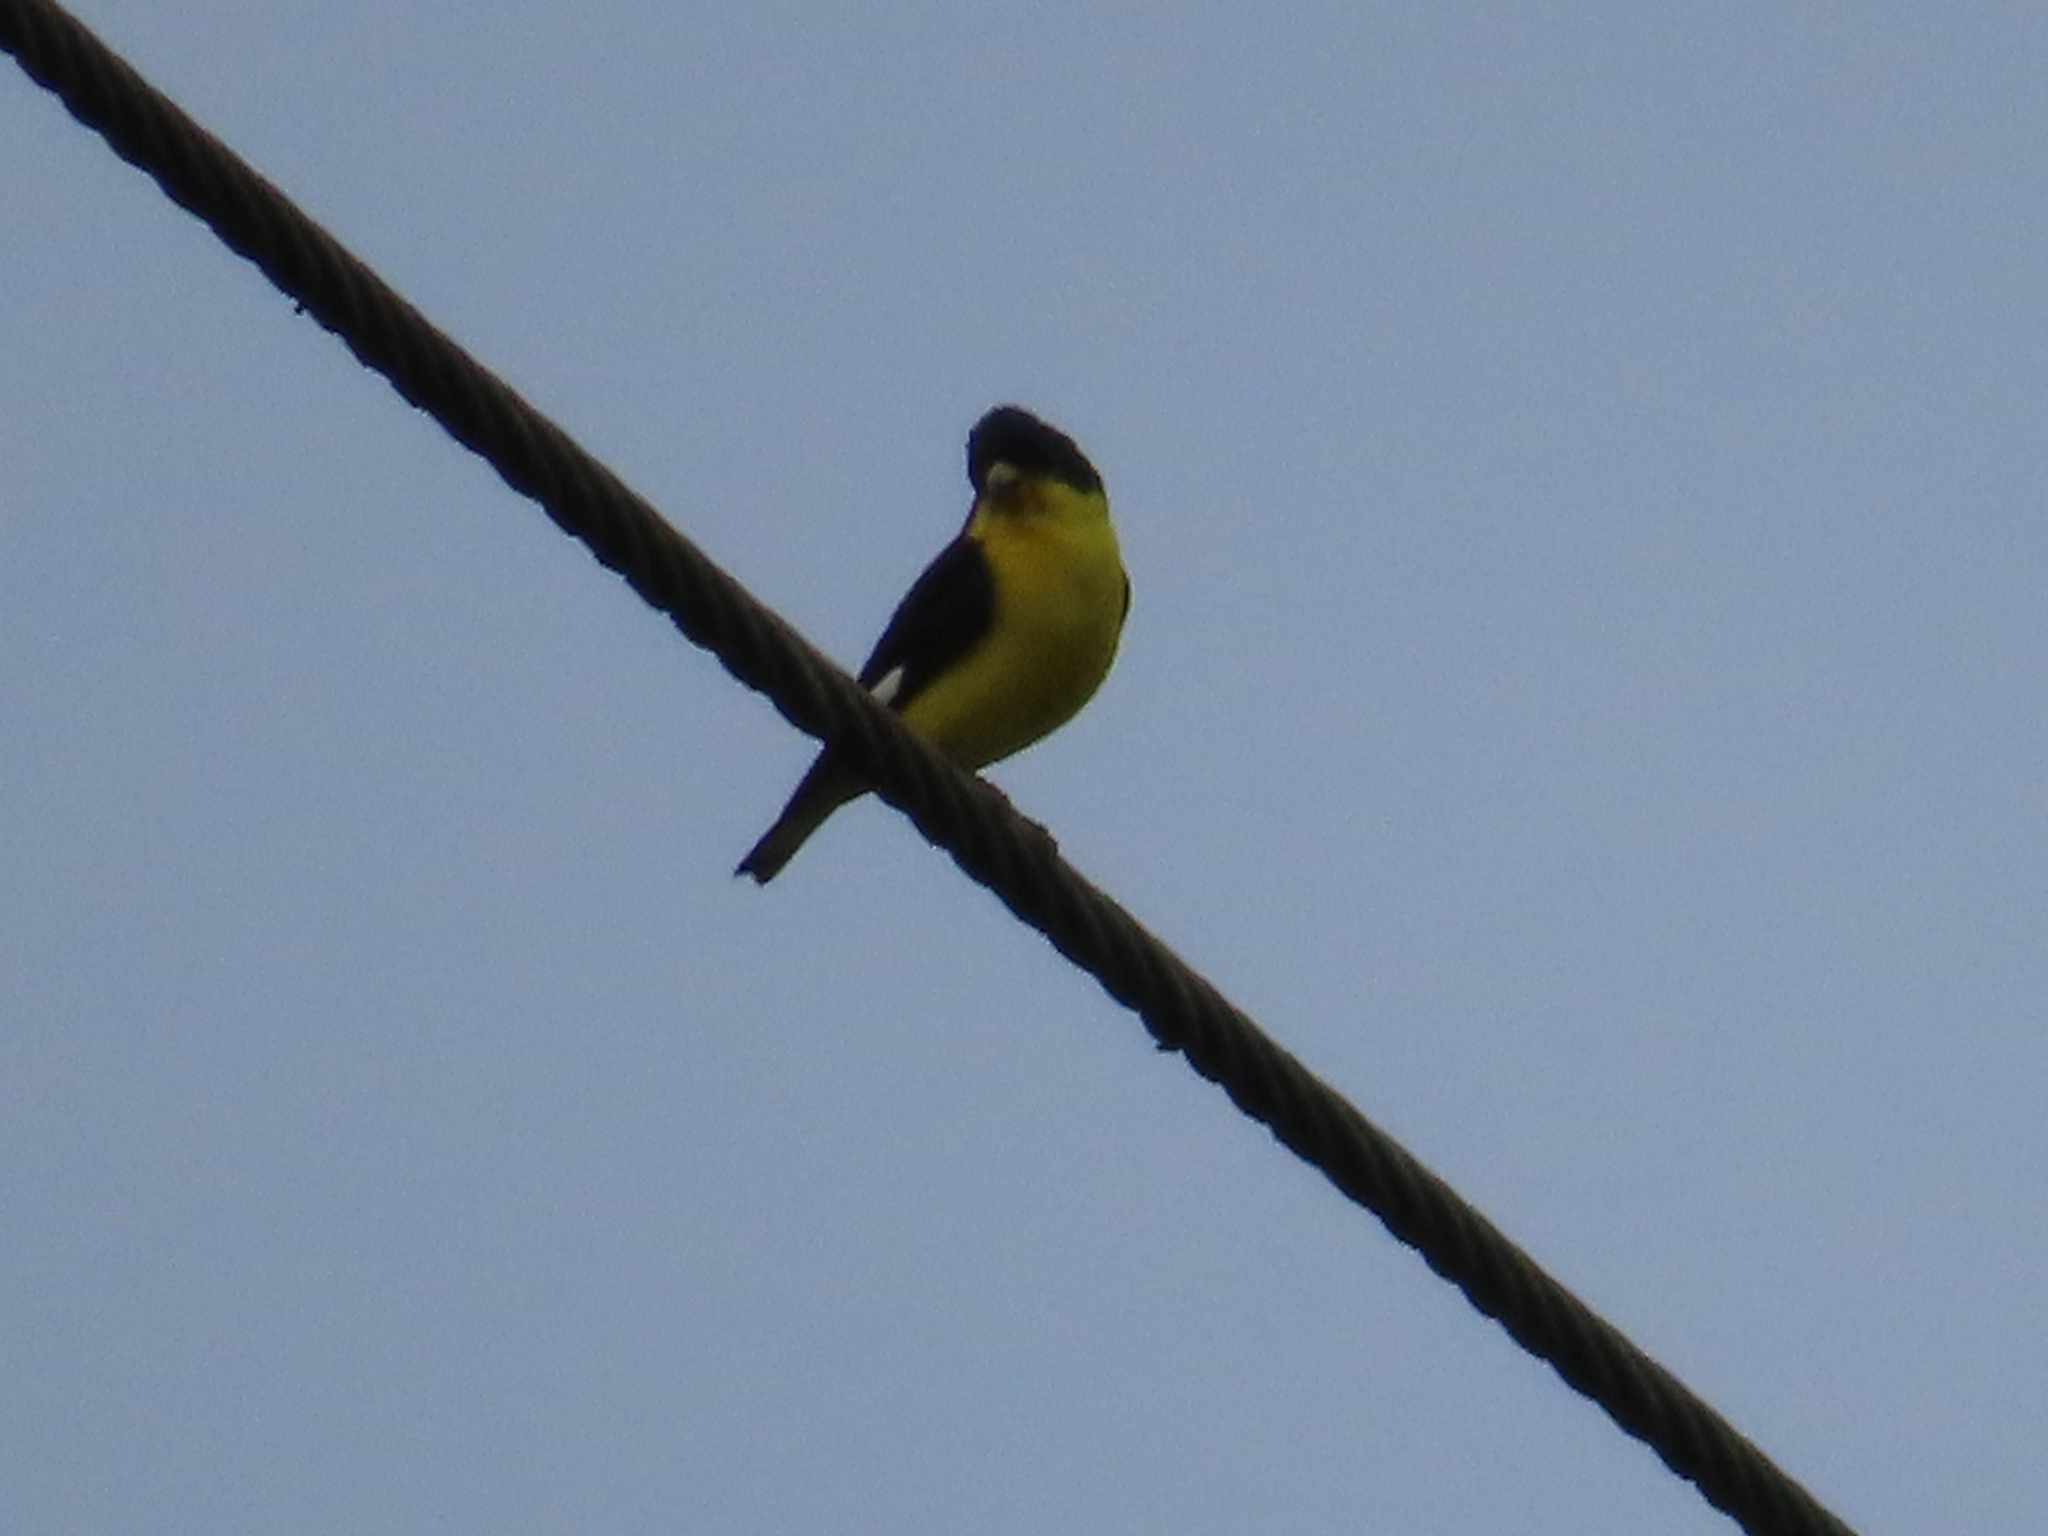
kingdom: Animalia
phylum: Chordata
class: Aves
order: Passeriformes
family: Fringillidae
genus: Spinus
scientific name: Spinus psaltria
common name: Lesser goldfinch
